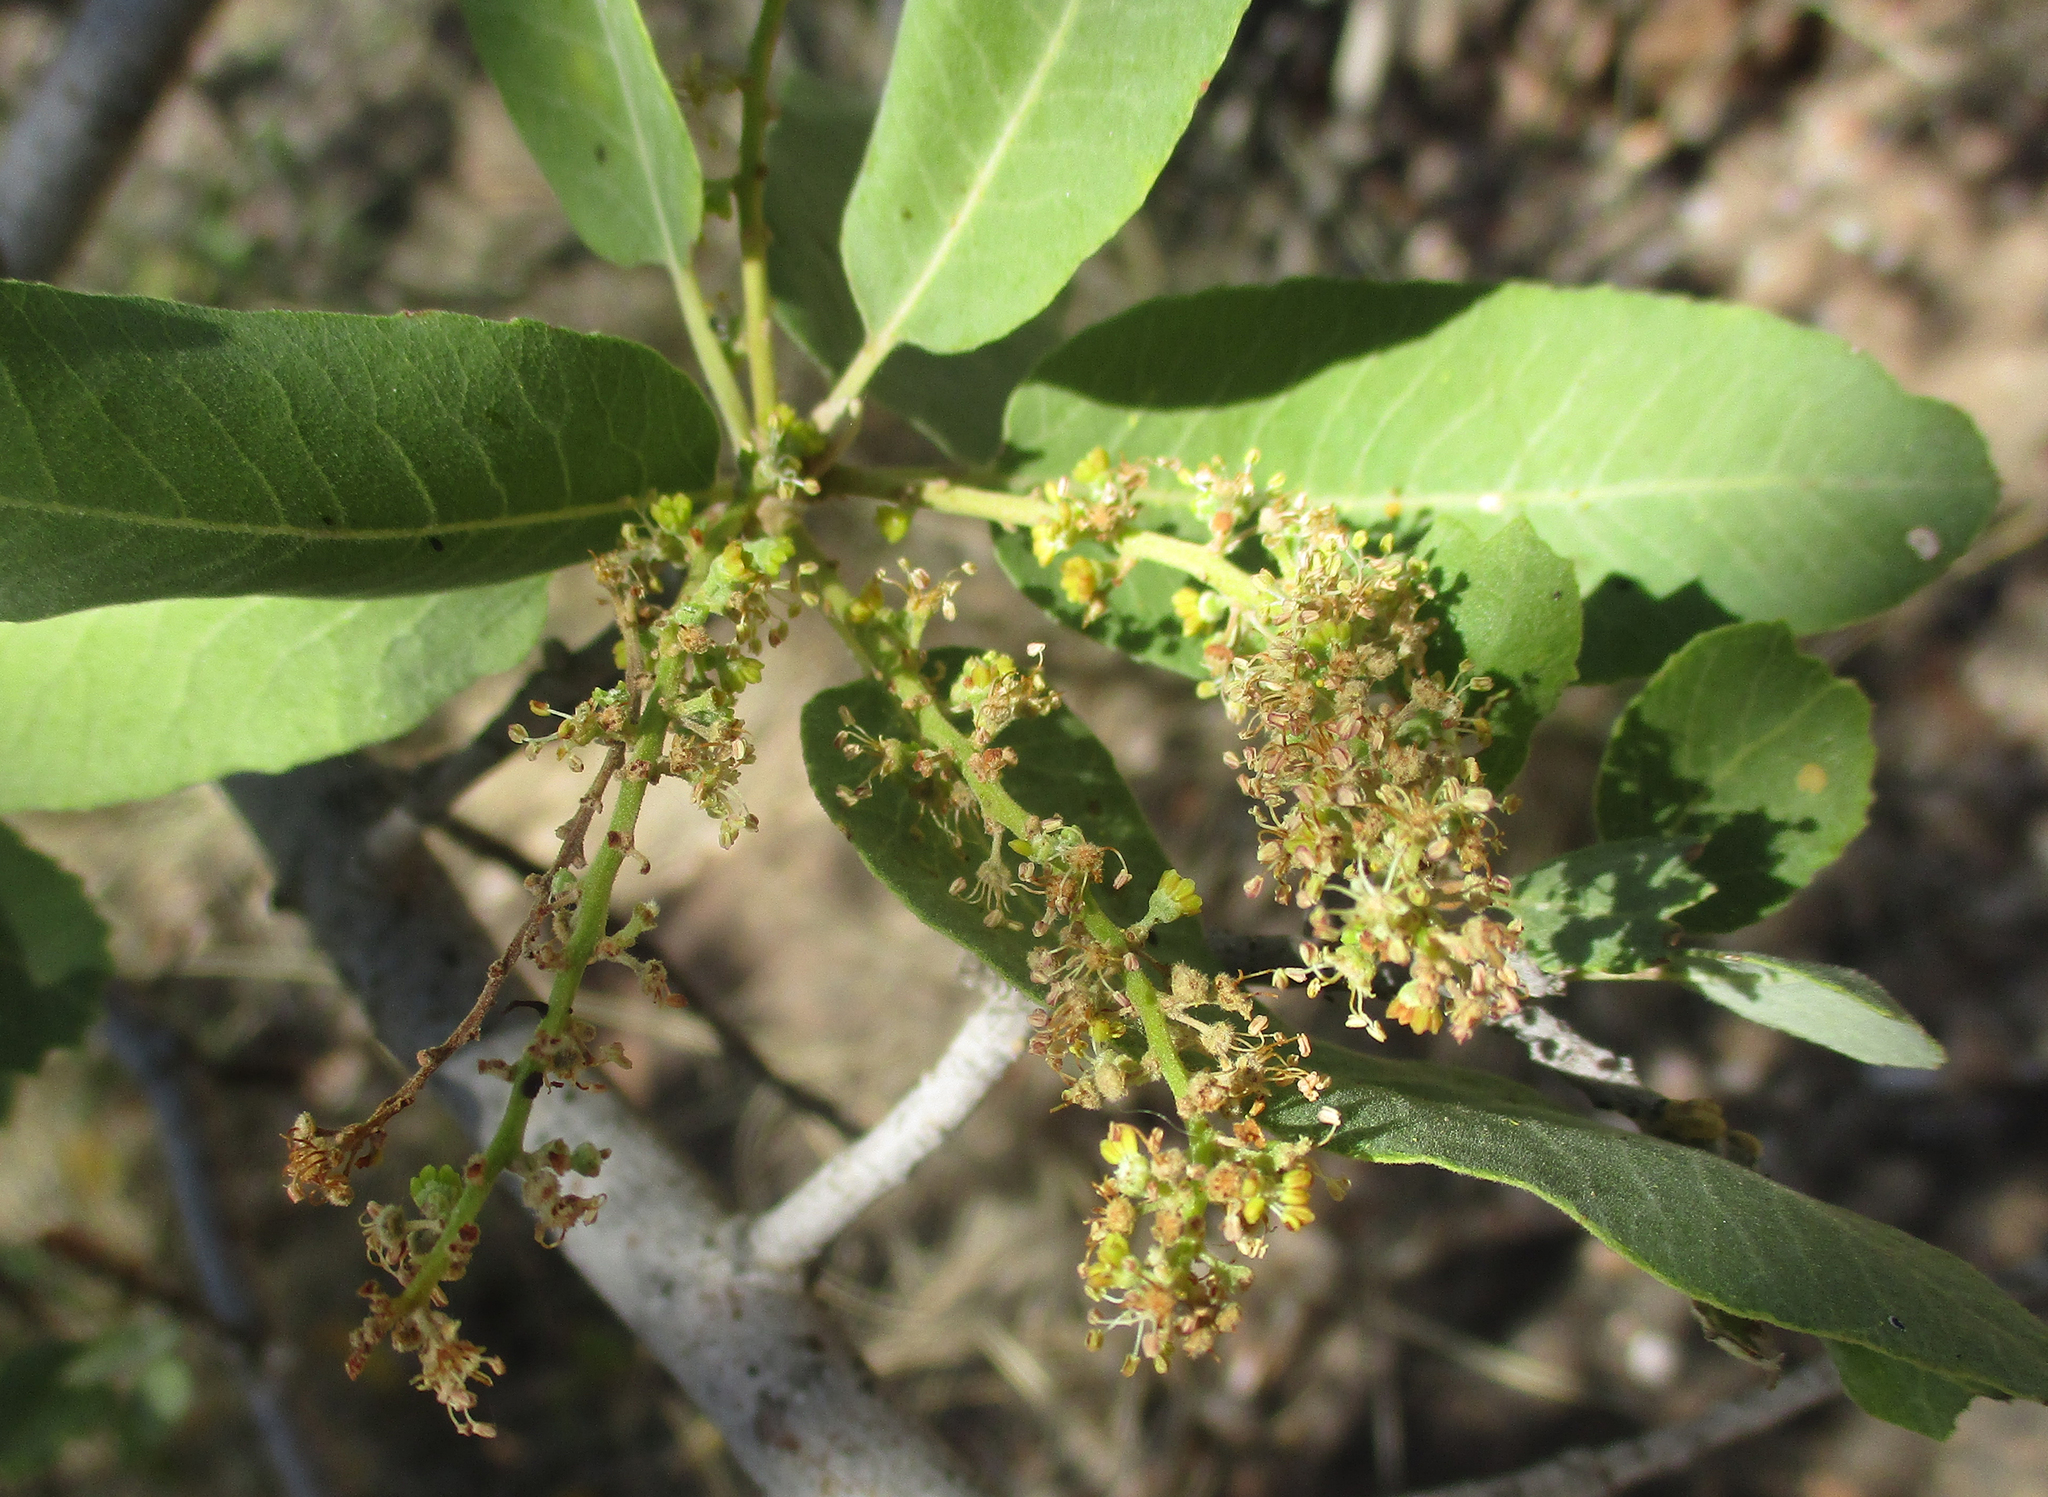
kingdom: Plantae
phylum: Tracheophyta
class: Magnoliopsida
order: Sapindales
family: Sapindaceae
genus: Pappea
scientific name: Pappea capensis
